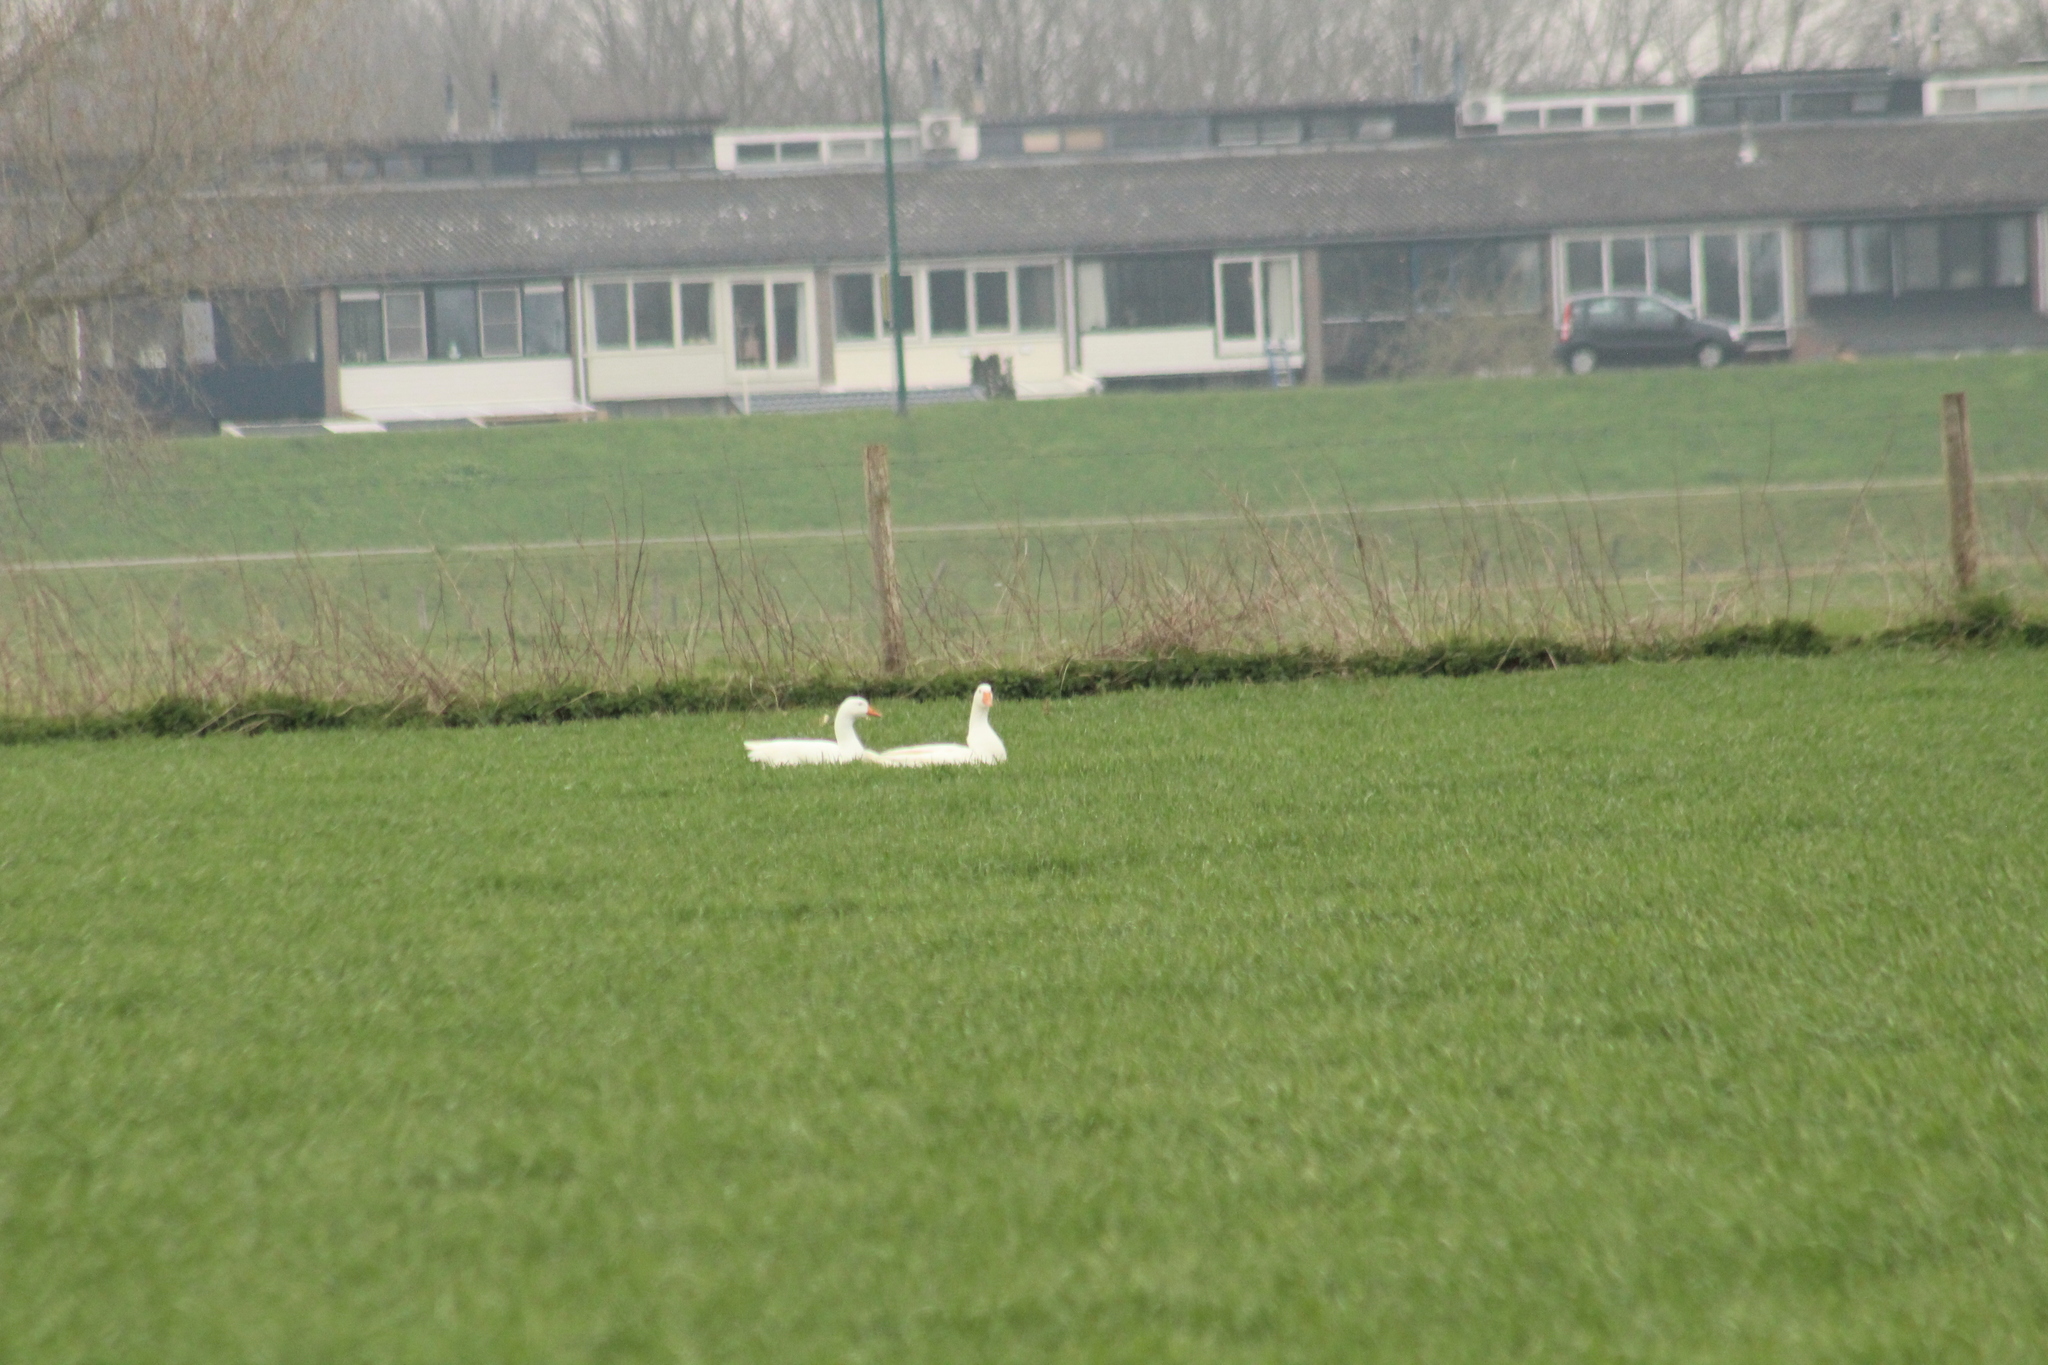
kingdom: Animalia
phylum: Chordata
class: Aves
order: Anseriformes
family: Anatidae
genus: Anser
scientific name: Anser anser
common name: Greylag goose
